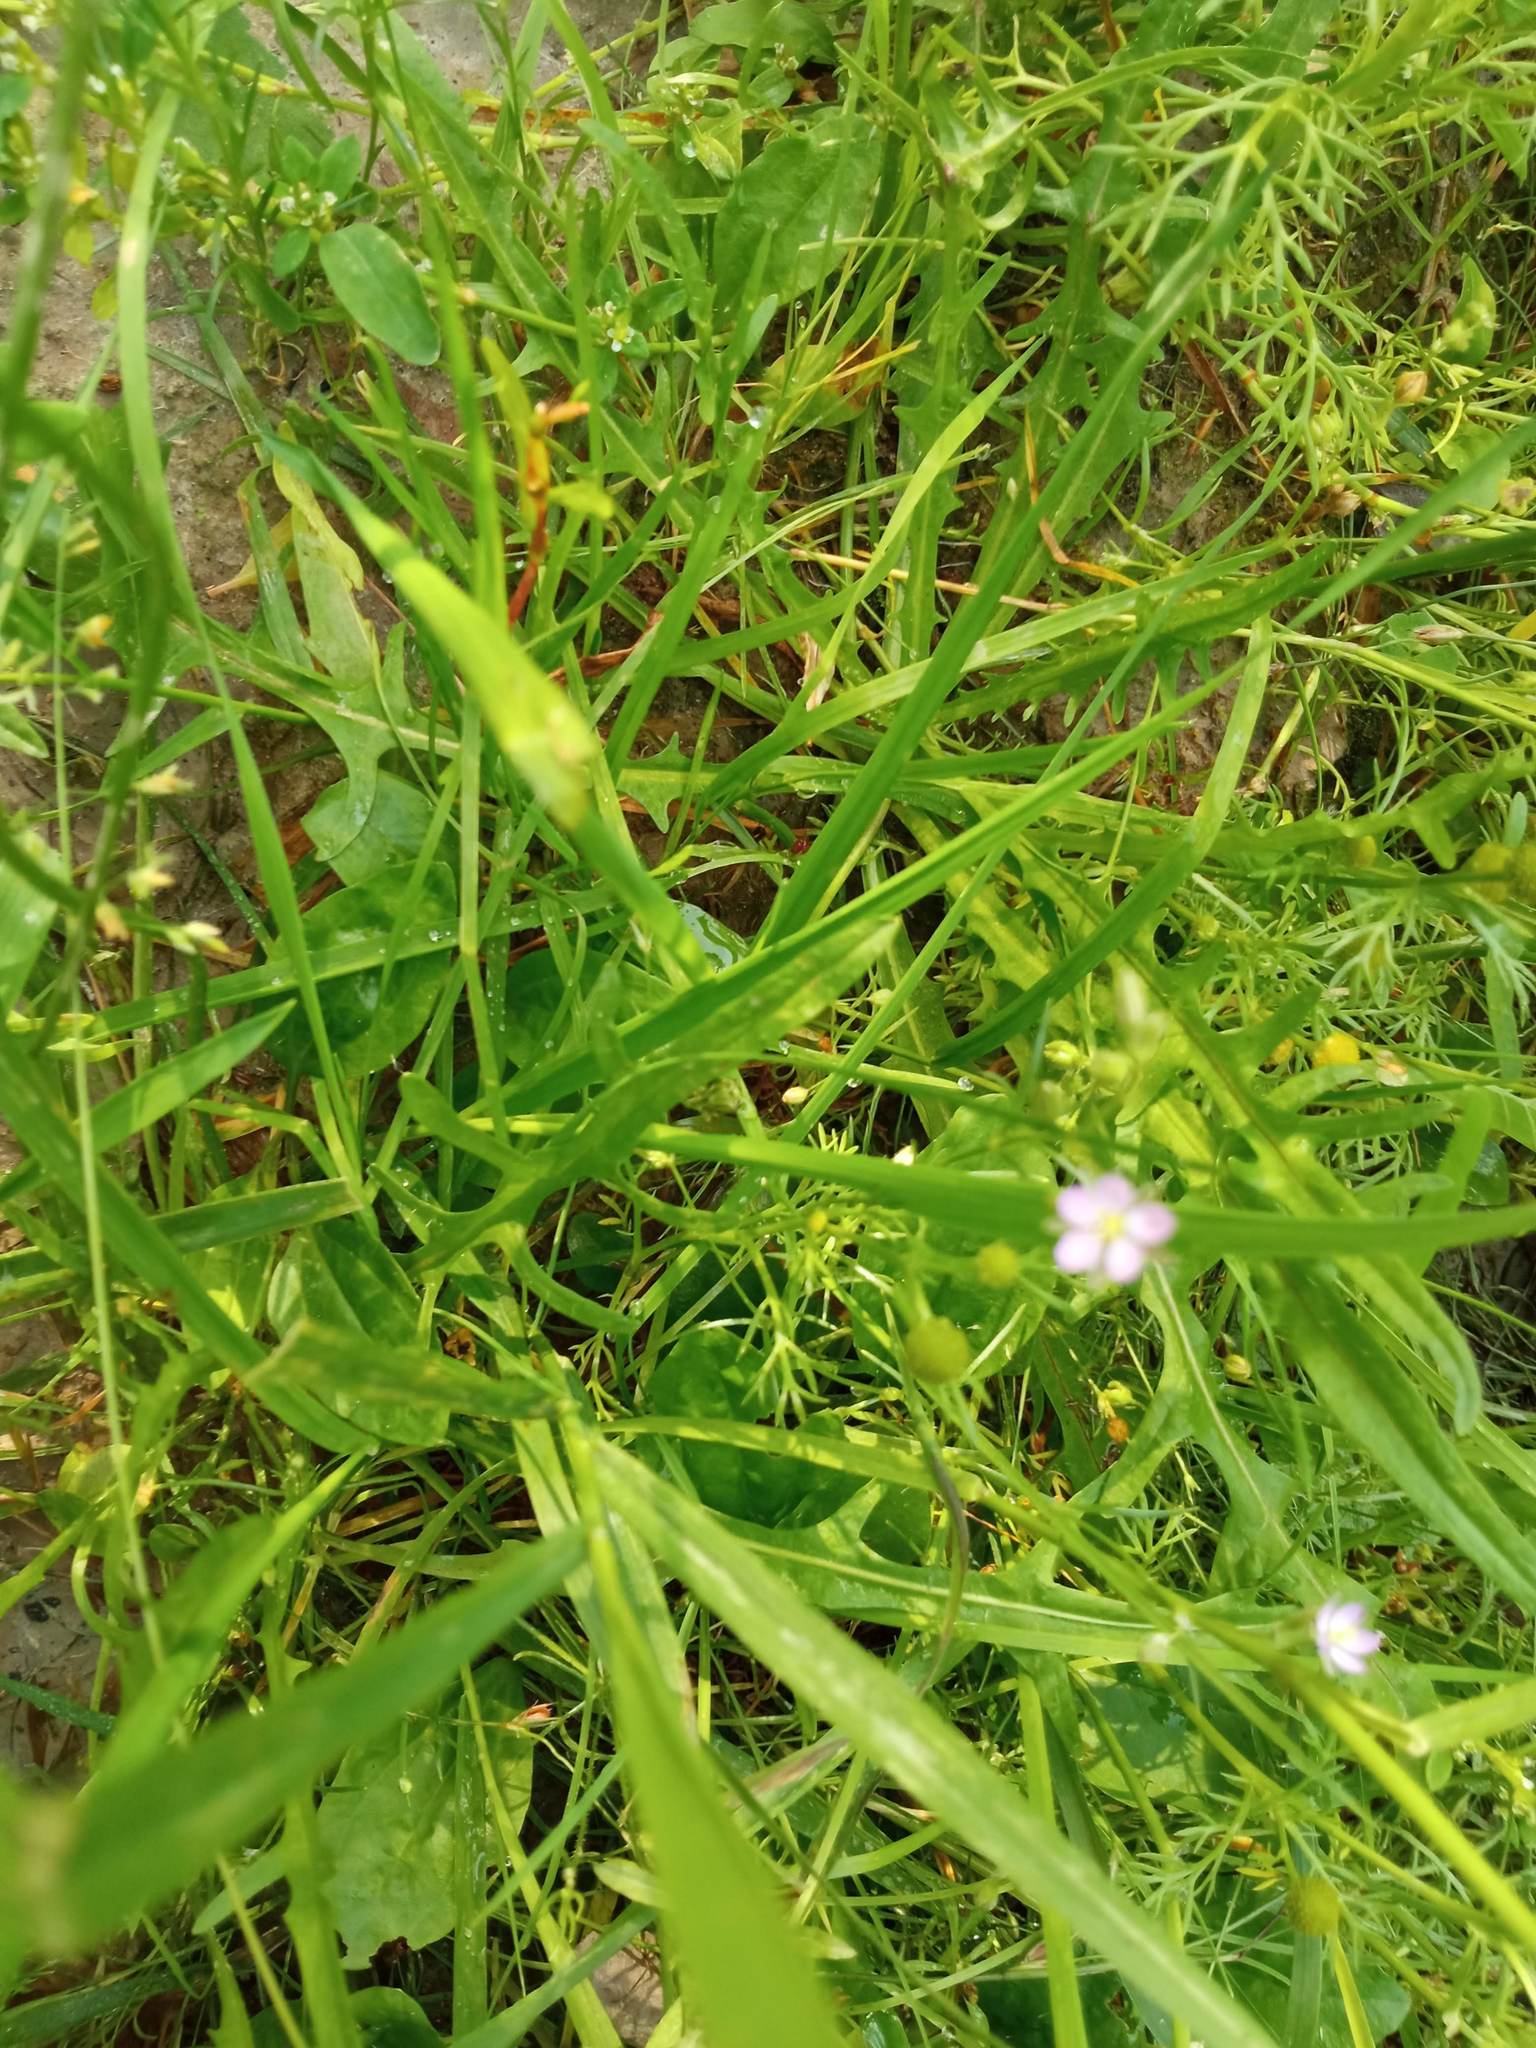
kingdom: Plantae
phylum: Tracheophyta
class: Magnoliopsida
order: Caryophyllales
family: Caryophyllaceae
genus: Spergularia
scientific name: Spergularia rubra
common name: Red sand-spurrey
